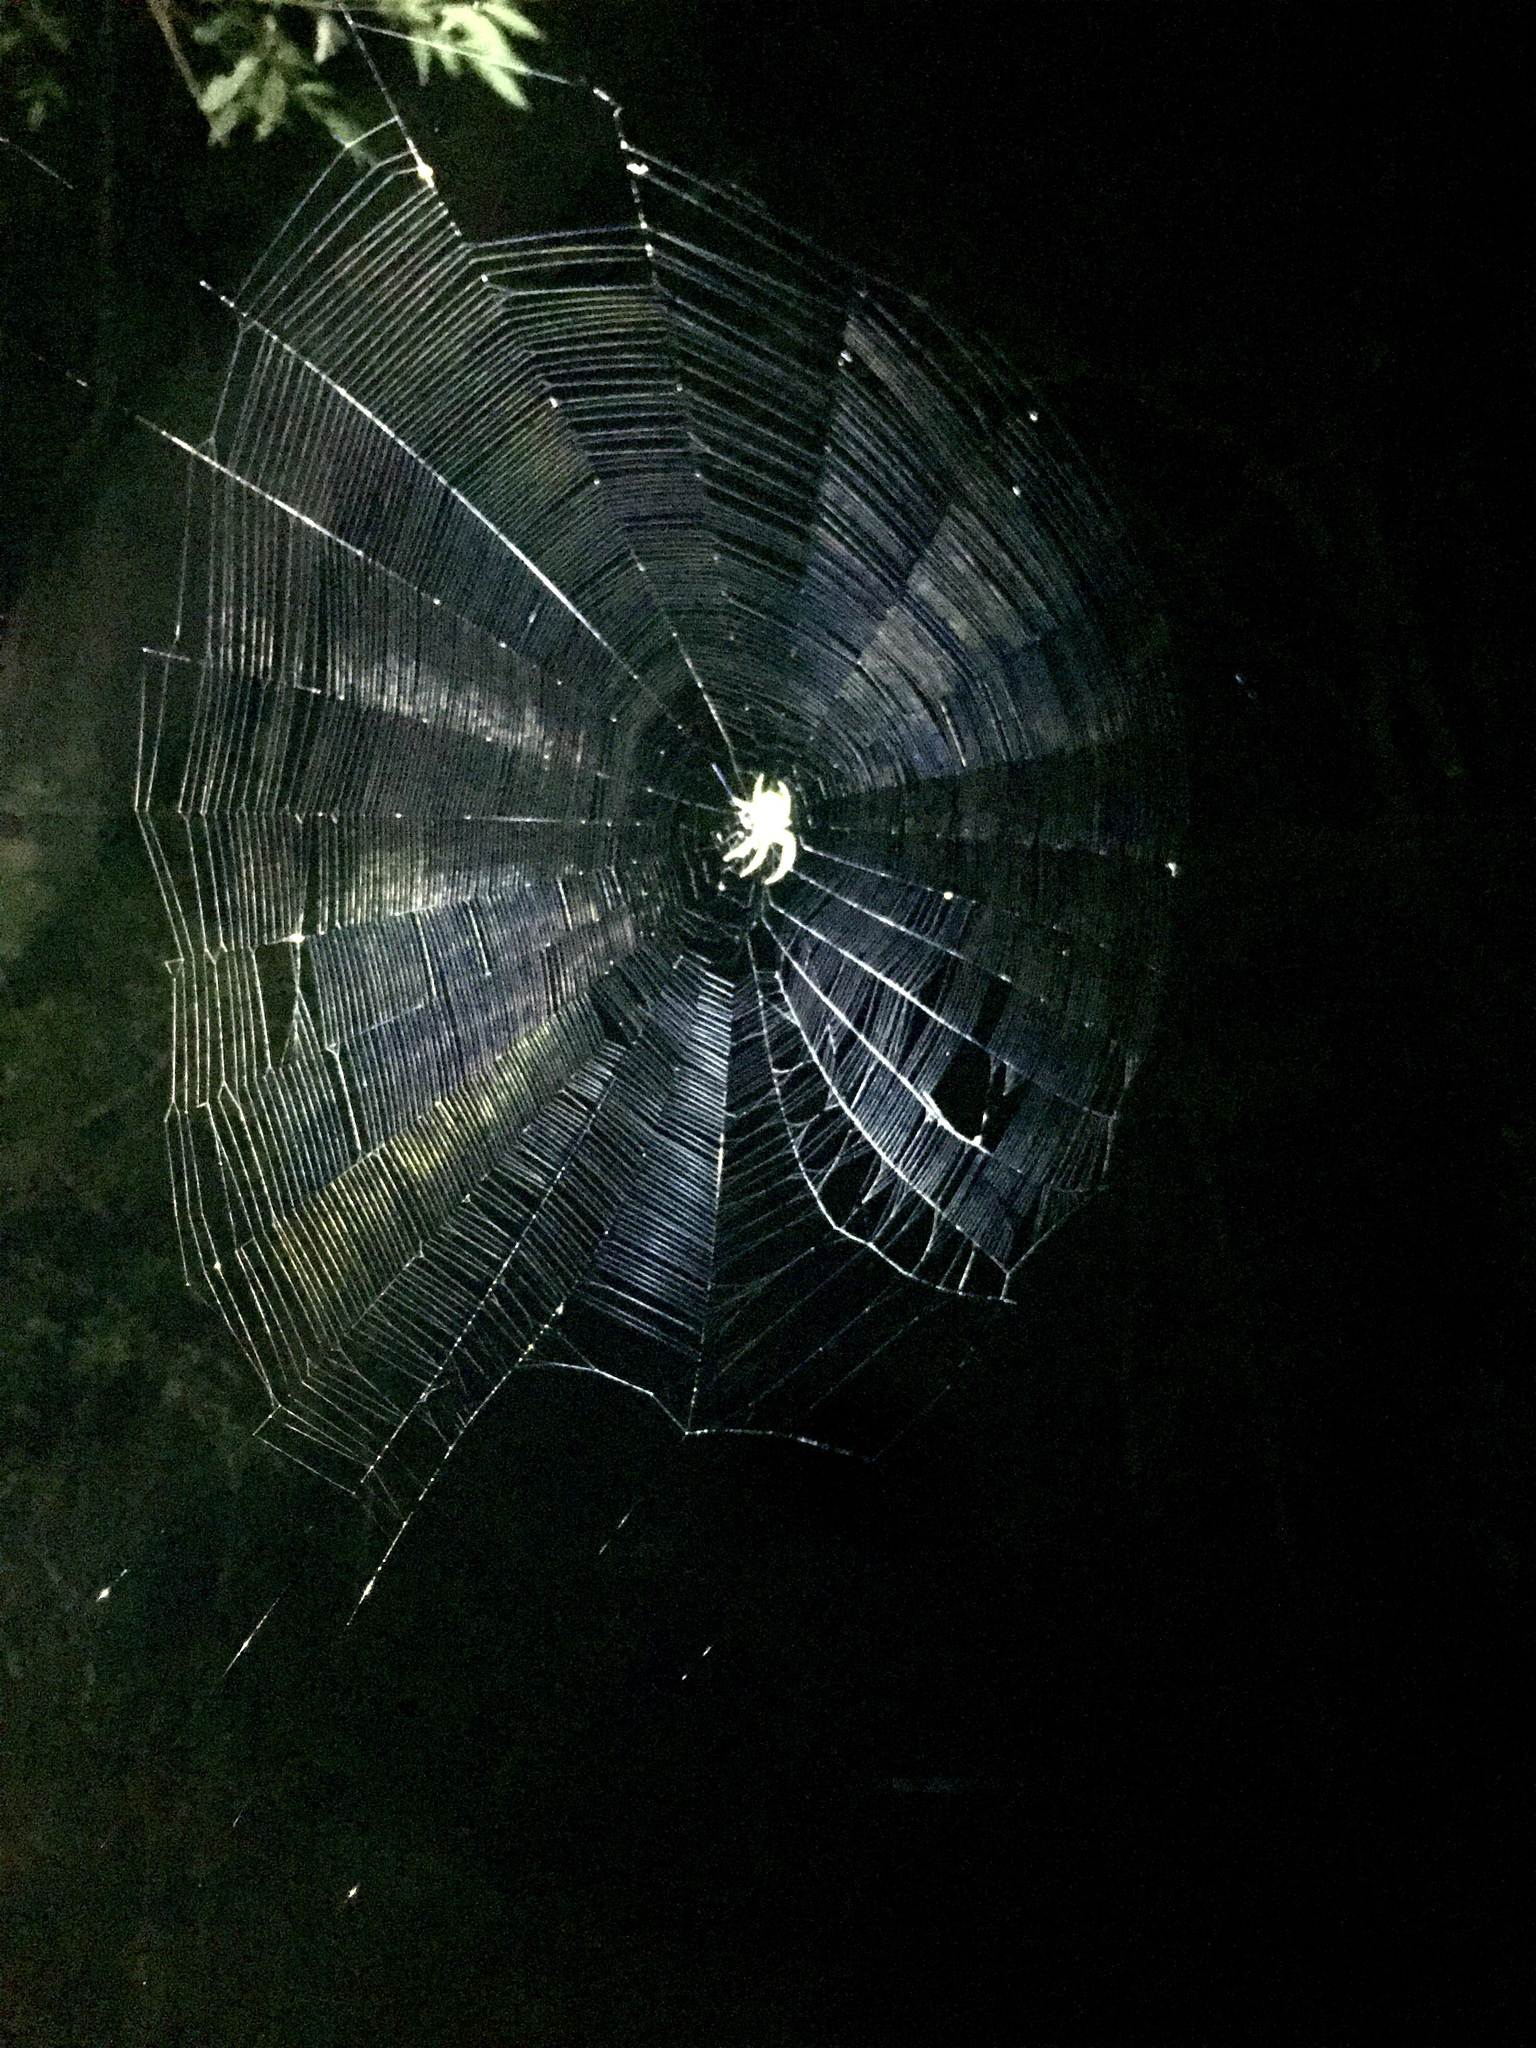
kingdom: Animalia
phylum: Arthropoda
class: Arachnida
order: Araneae
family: Araneidae
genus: Araneus
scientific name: Araneus uniformis
